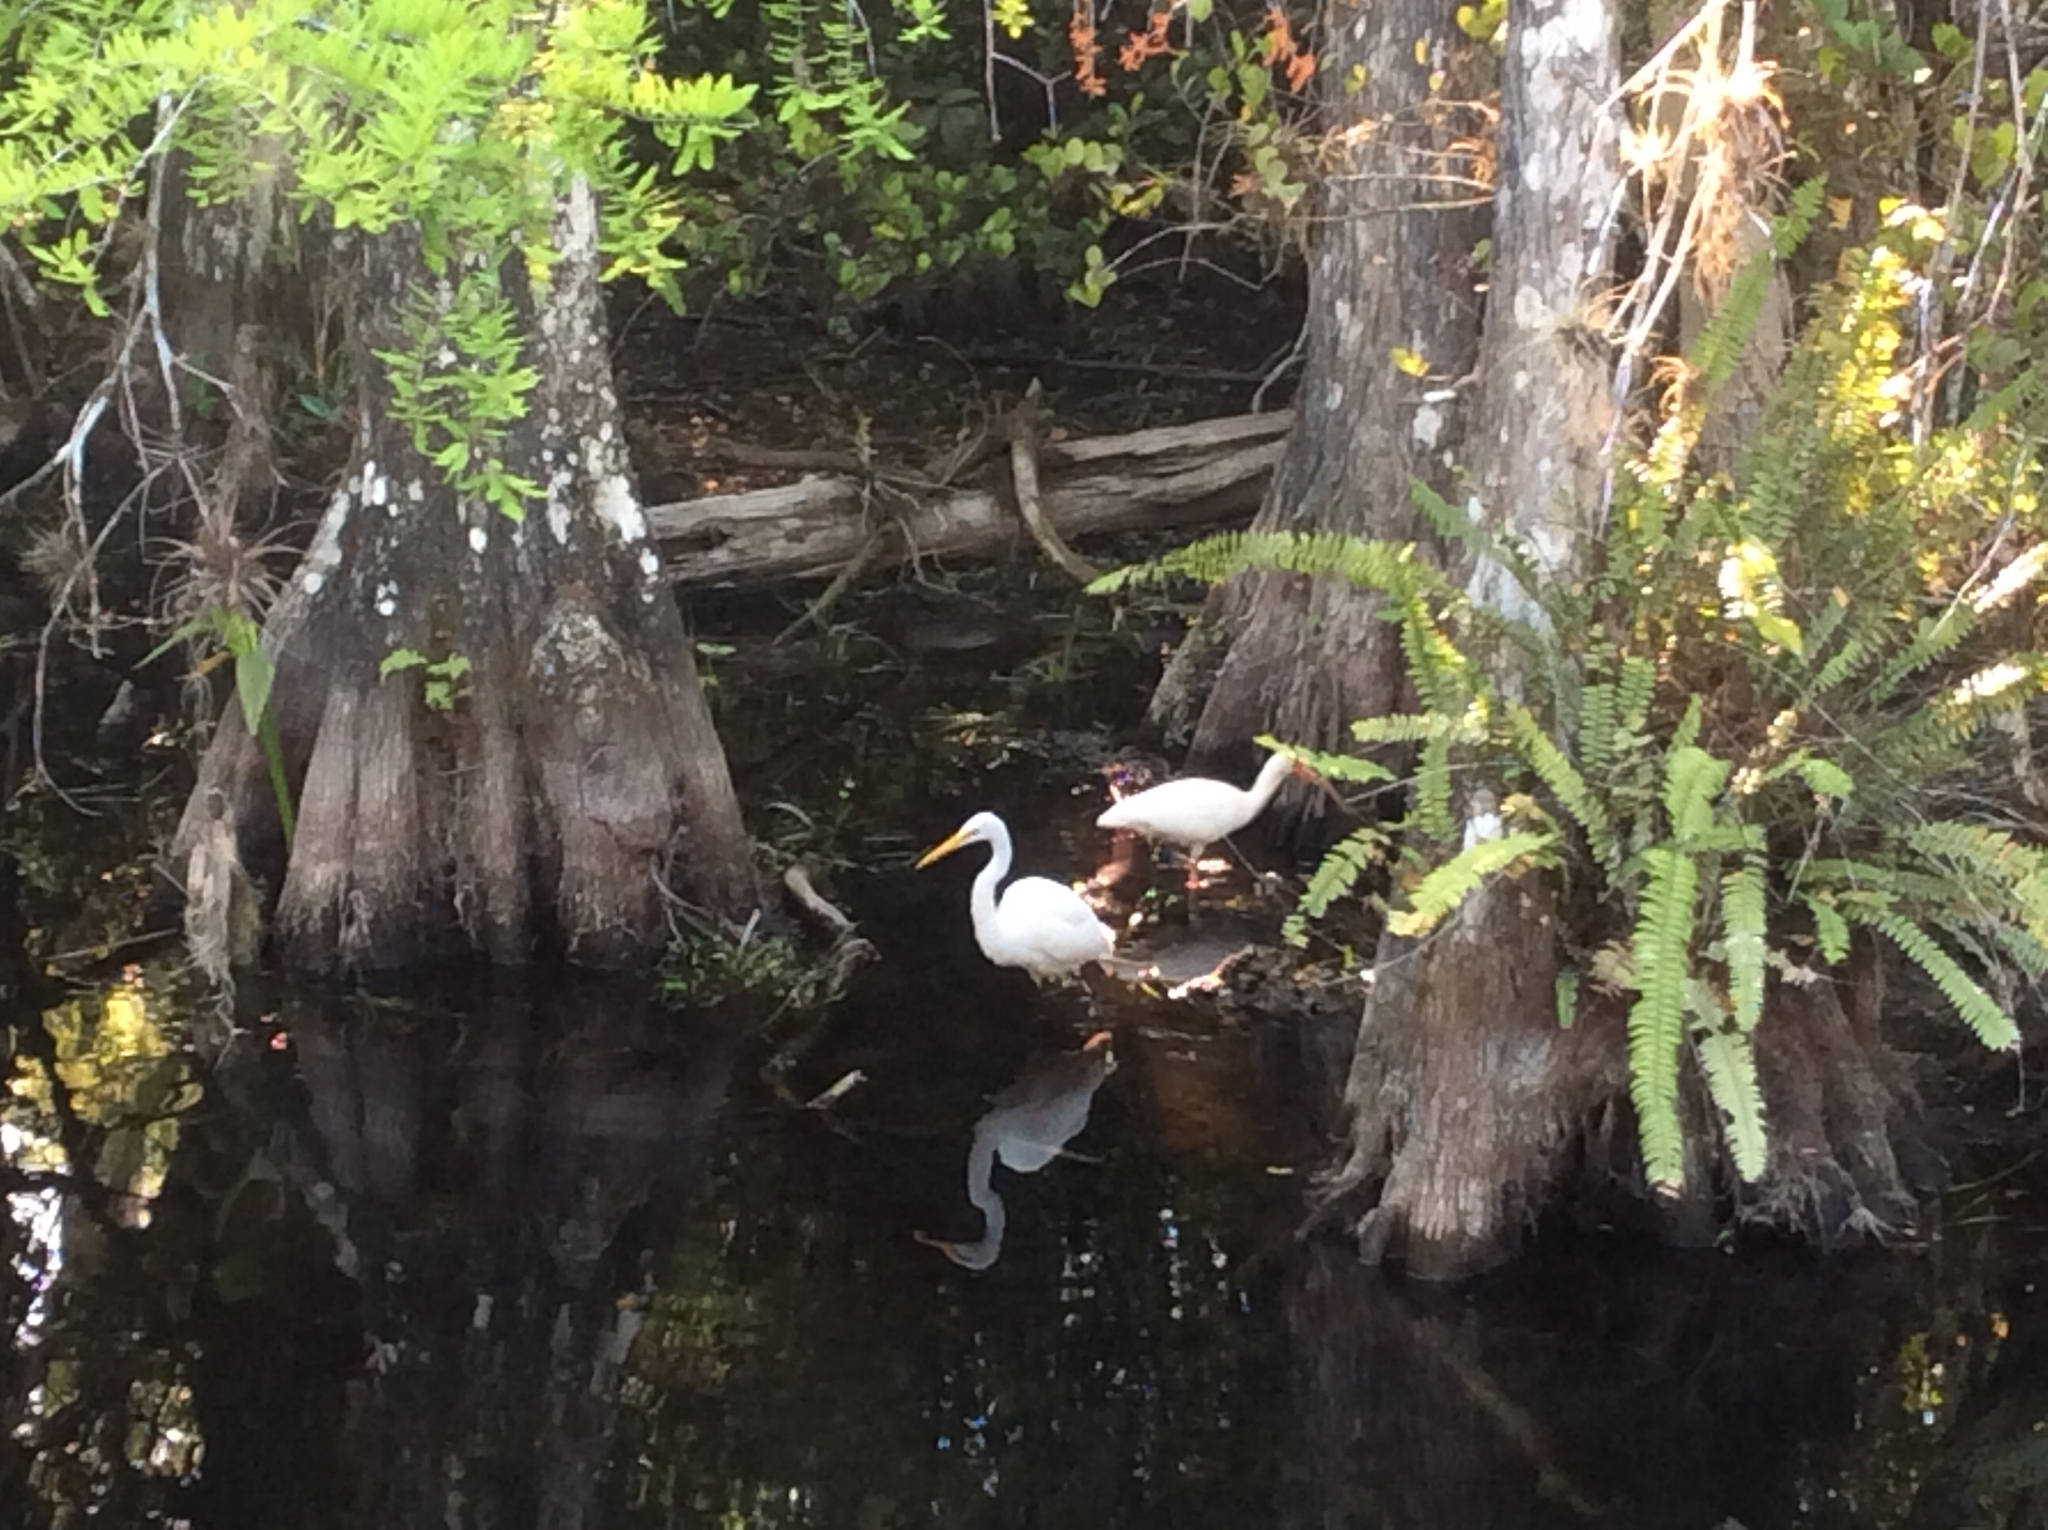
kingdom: Animalia
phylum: Chordata
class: Aves
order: Pelecaniformes
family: Threskiornithidae
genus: Eudocimus
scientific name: Eudocimus albus
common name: White ibis
